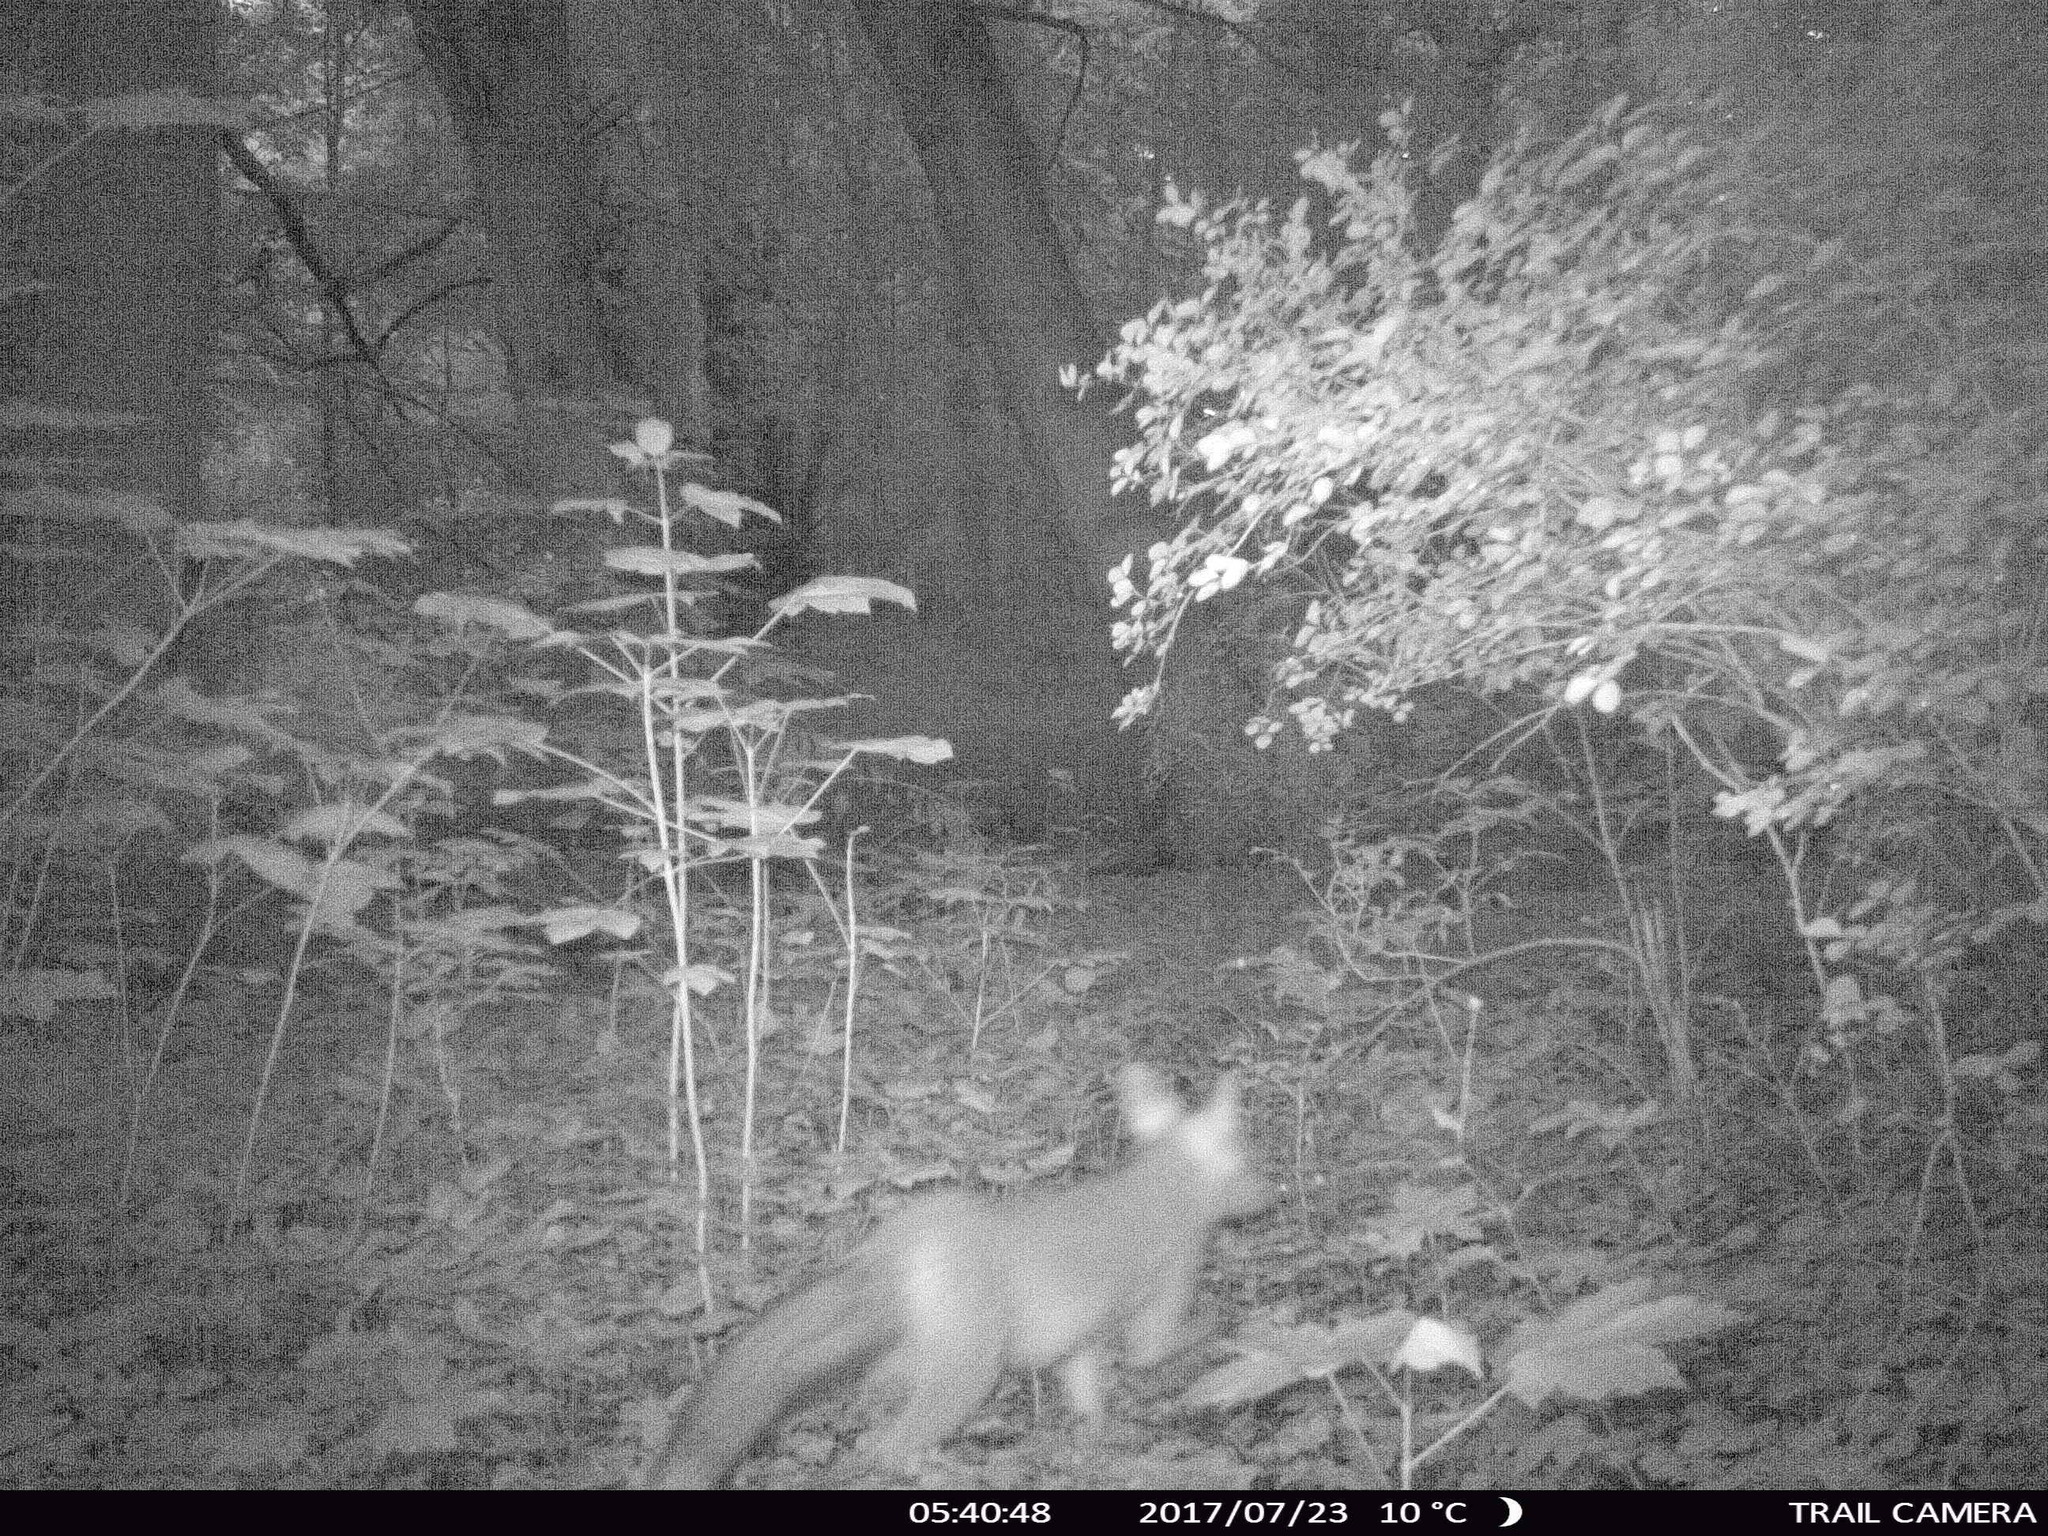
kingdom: Animalia
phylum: Chordata
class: Mammalia
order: Carnivora
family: Canidae
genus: Vulpes
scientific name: Vulpes vulpes
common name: Red fox
